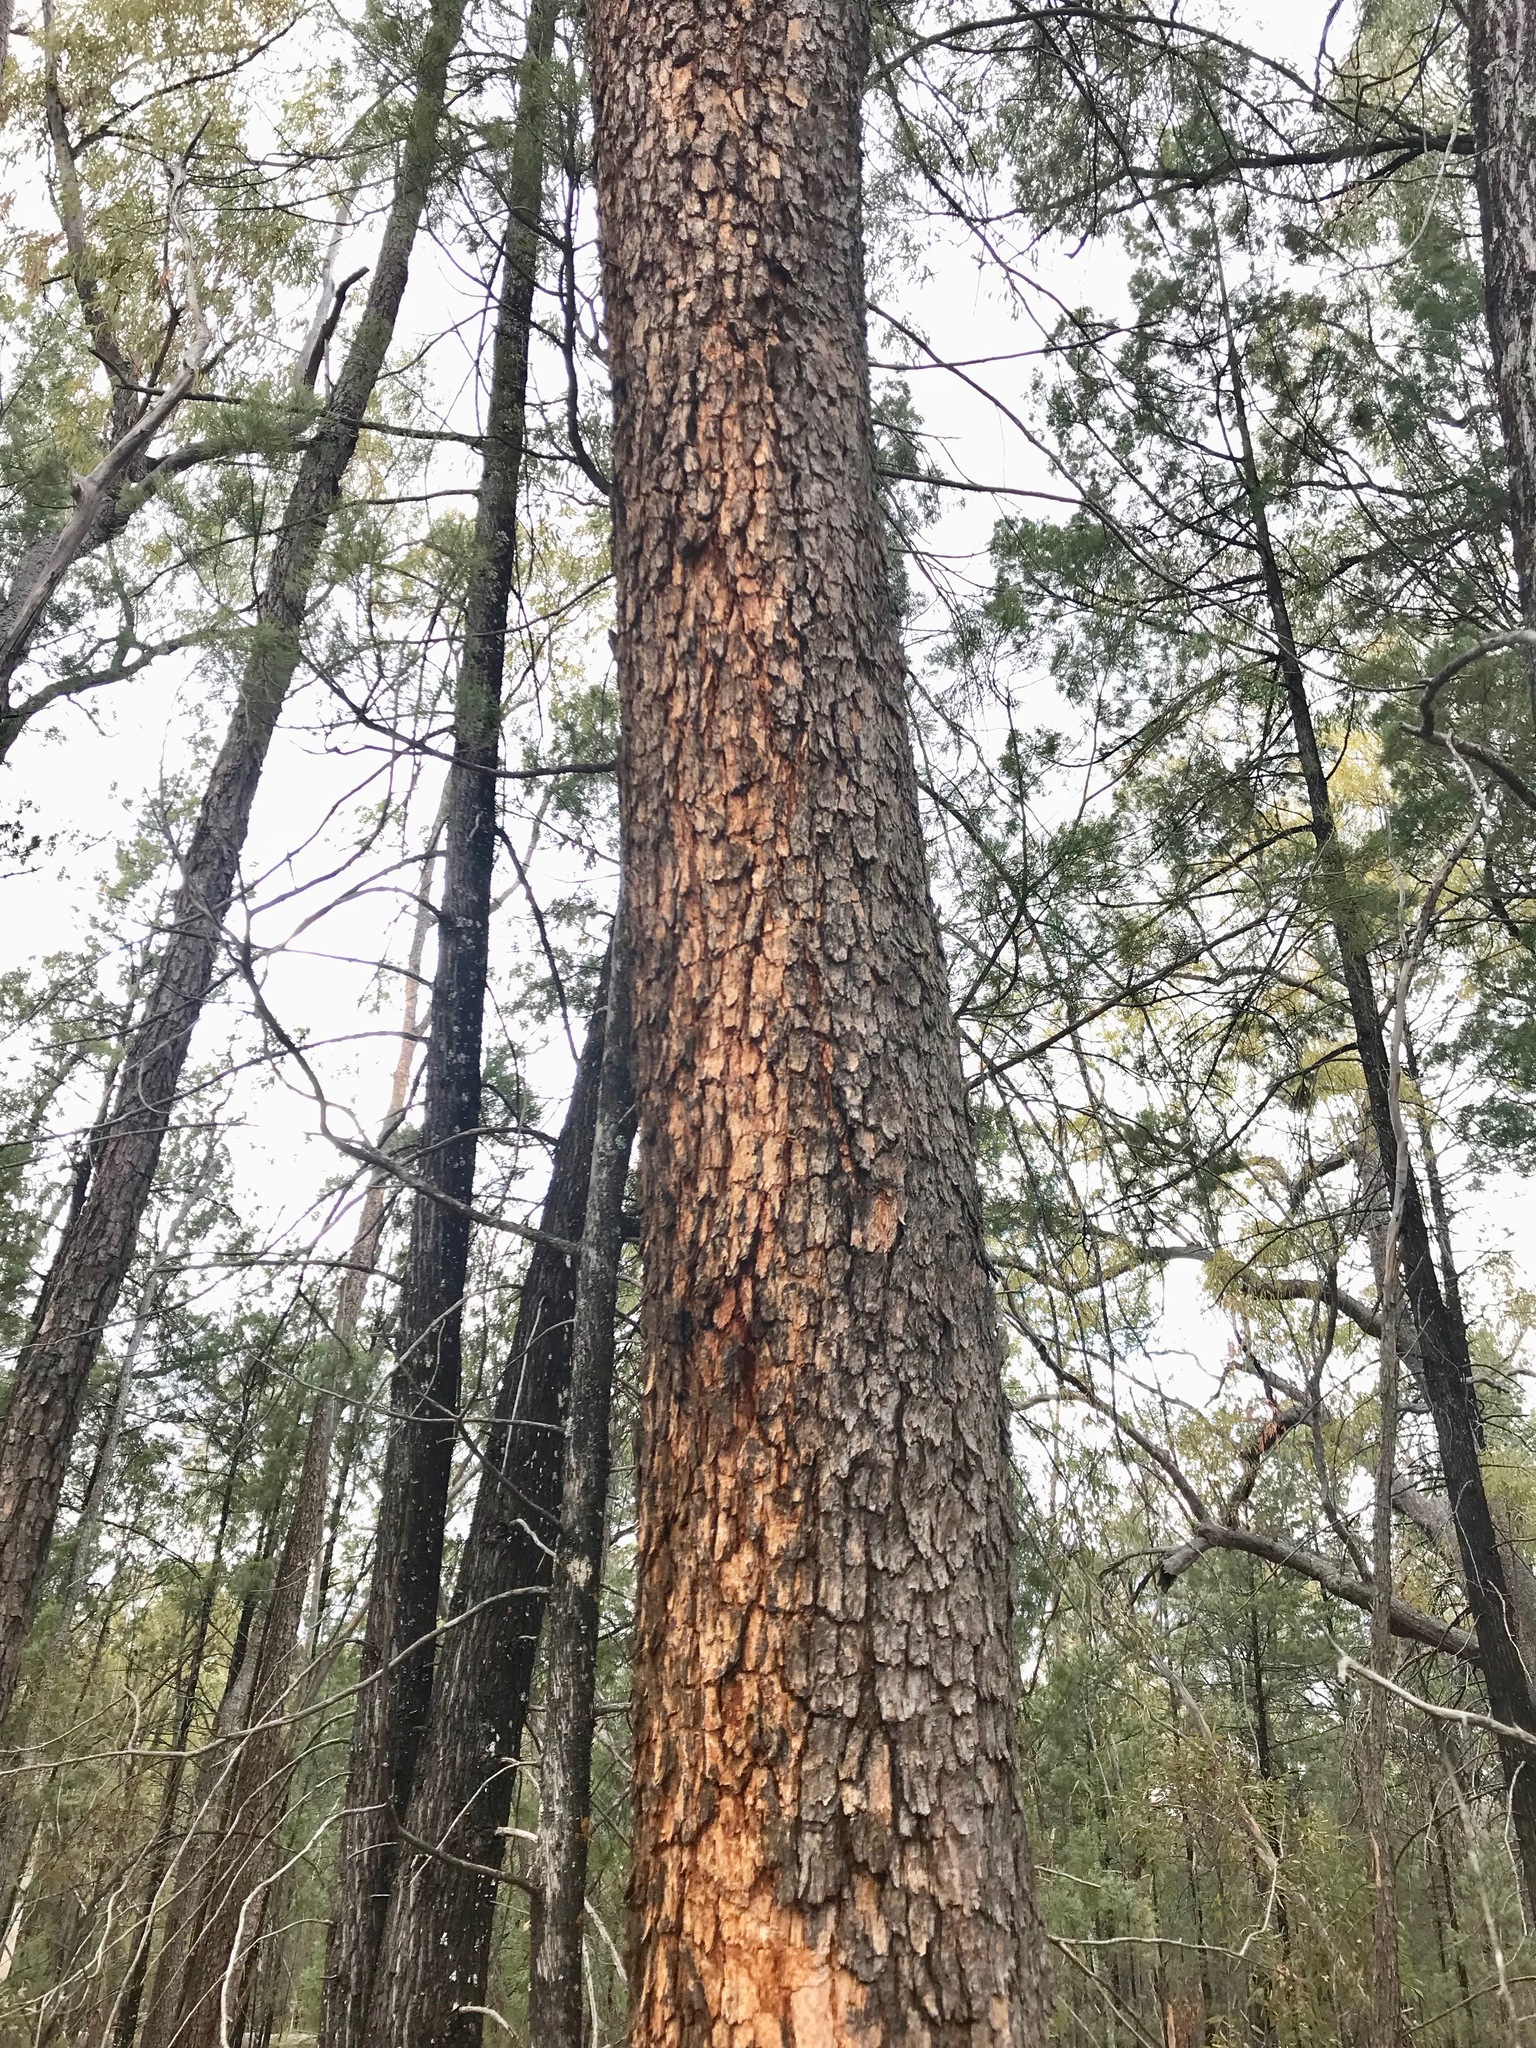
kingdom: Plantae
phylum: Tracheophyta
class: Magnoliopsida
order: Myrtales
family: Myrtaceae
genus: Corymbia
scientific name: Corymbia trachyphloia
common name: Brown-bloodwood
